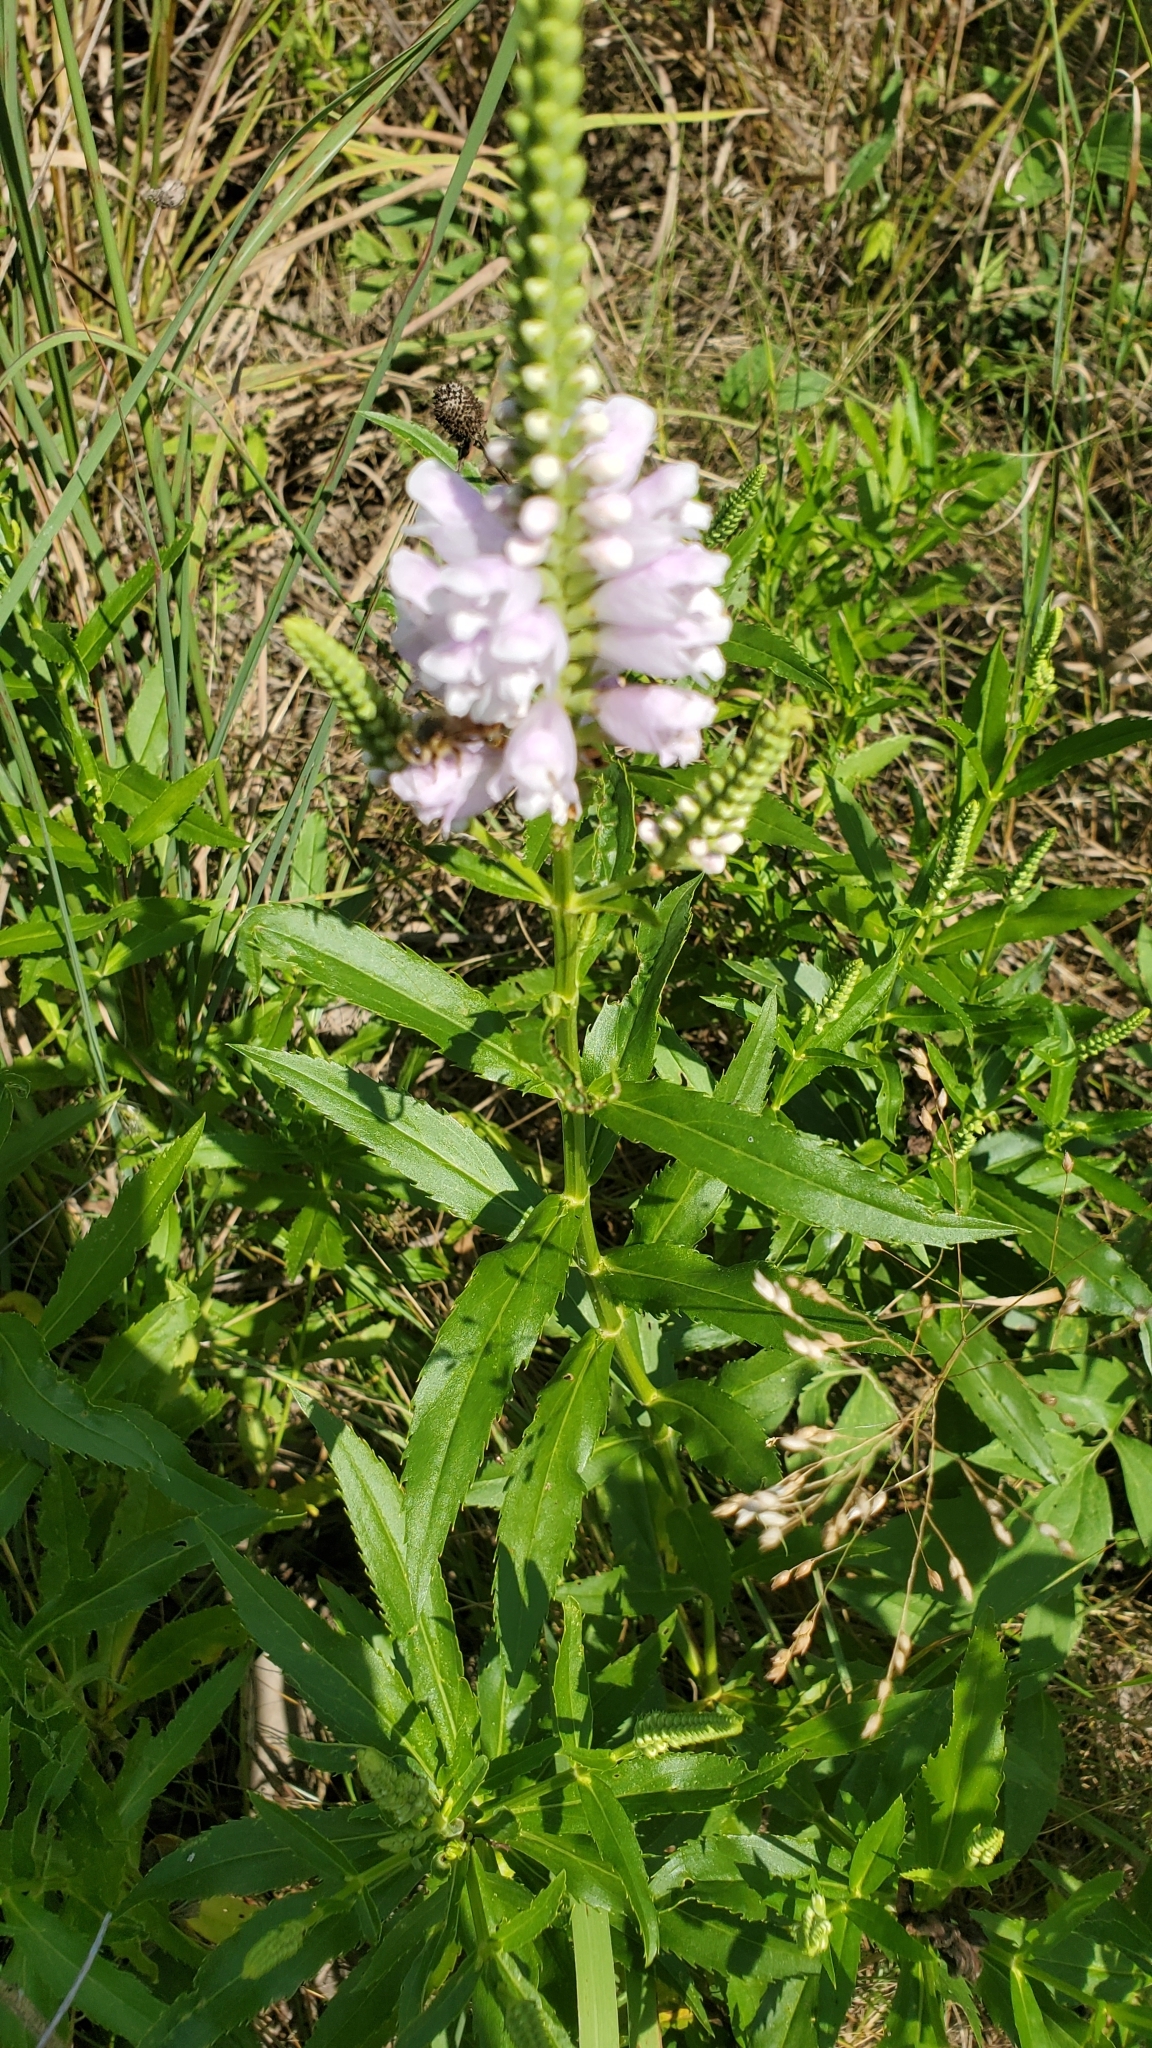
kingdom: Plantae
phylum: Tracheophyta
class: Magnoliopsida
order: Lamiales
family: Lamiaceae
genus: Physostegia
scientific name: Physostegia virginiana
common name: Obedient-plant
